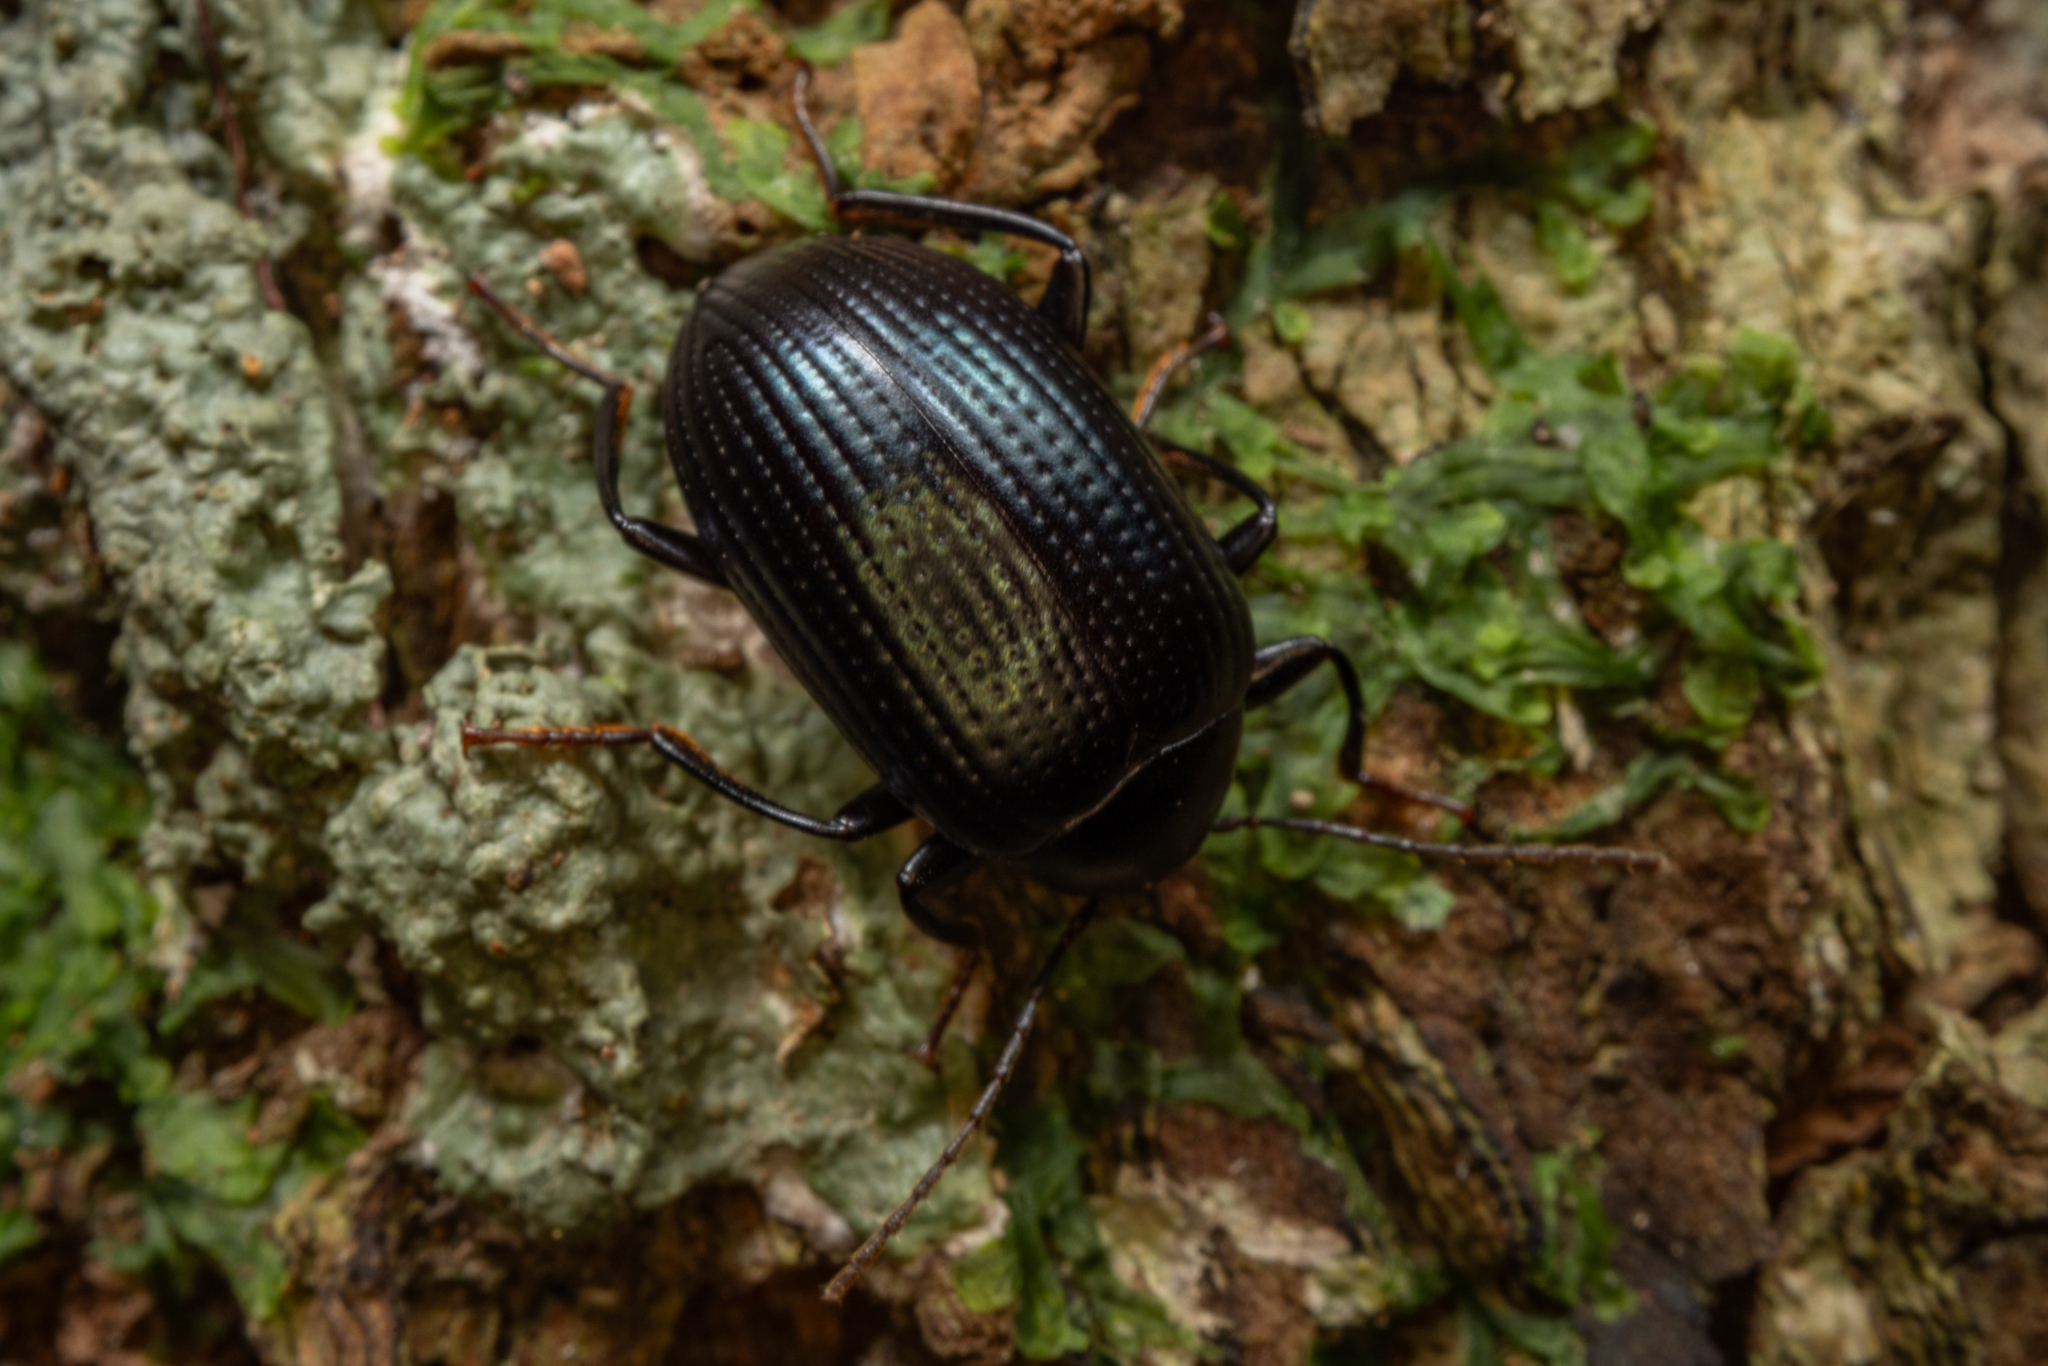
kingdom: Animalia
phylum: Arthropoda
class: Insecta
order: Coleoptera
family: Tenebrionidae
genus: Amarygmus
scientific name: Amarygmus
